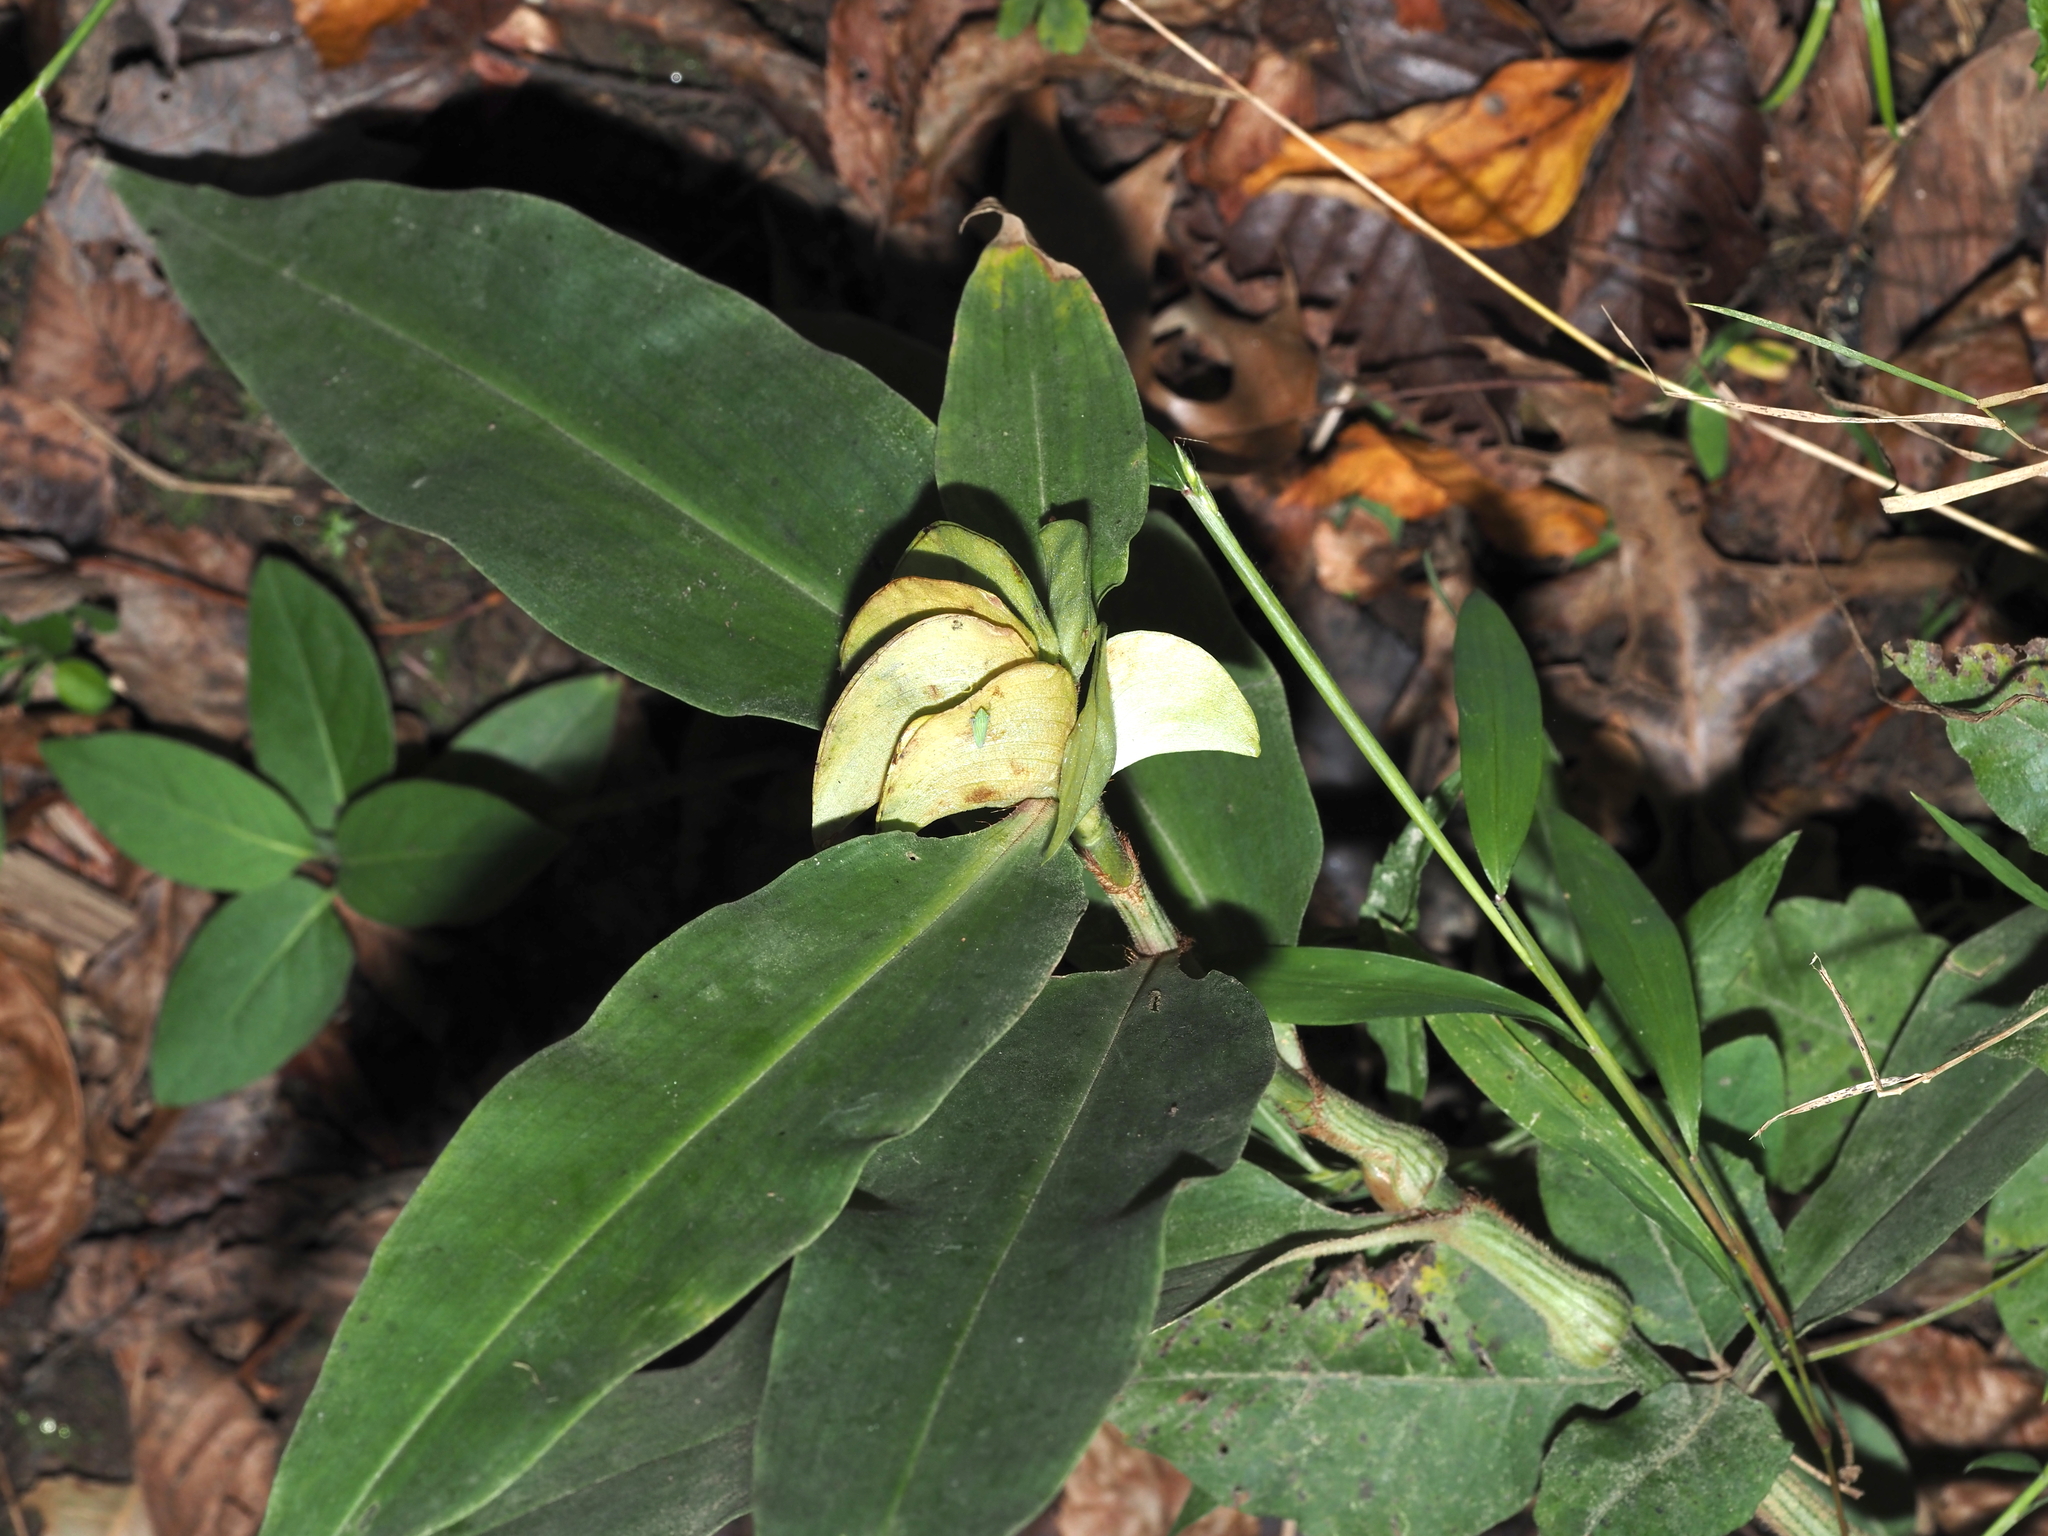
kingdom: Plantae
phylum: Tracheophyta
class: Liliopsida
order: Commelinales
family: Commelinaceae
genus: Commelina
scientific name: Commelina virginica
